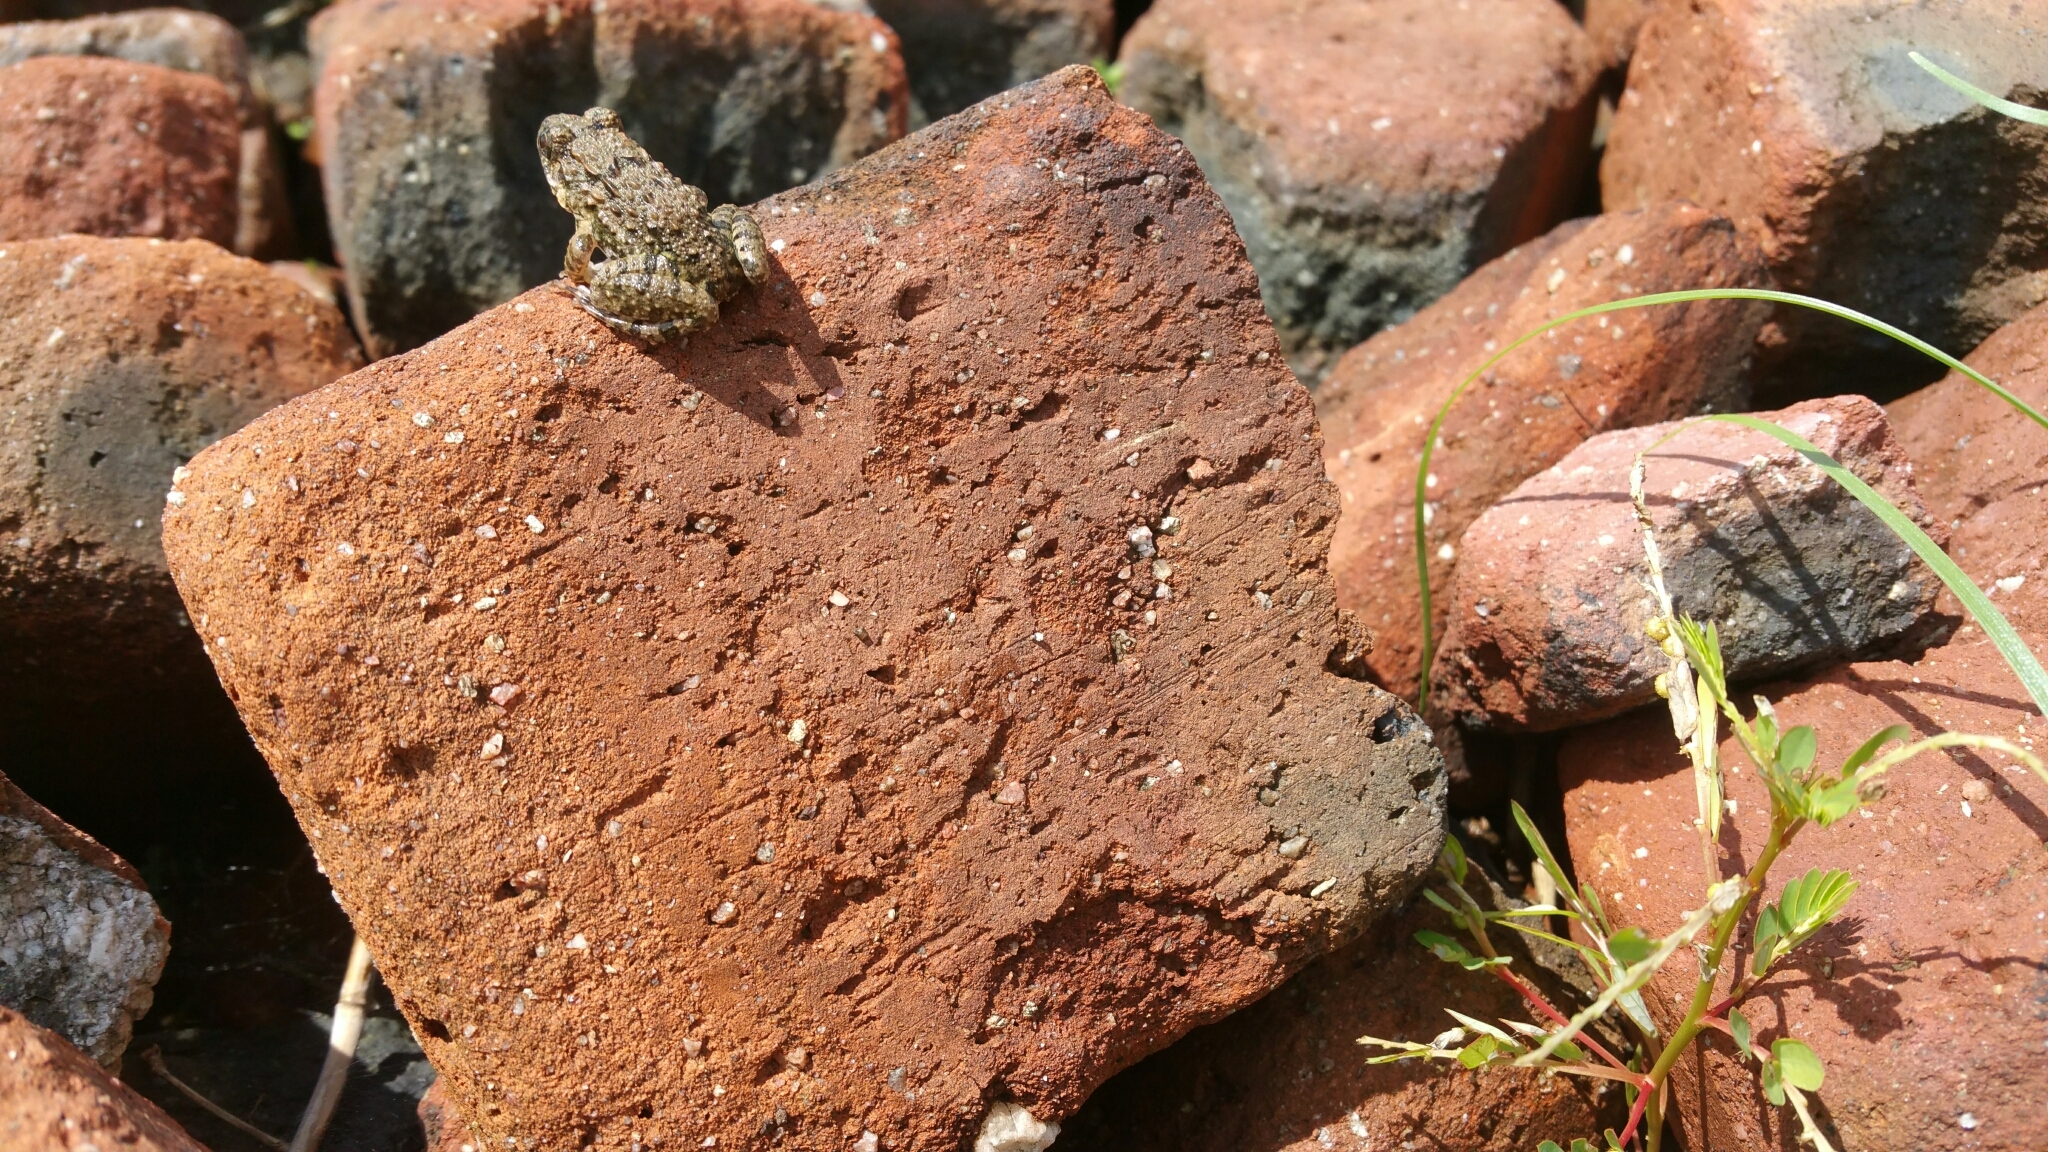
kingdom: Animalia
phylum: Chordata
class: Amphibia
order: Anura
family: Dicroglossidae
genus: Fejervarya
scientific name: Fejervarya multistriata
